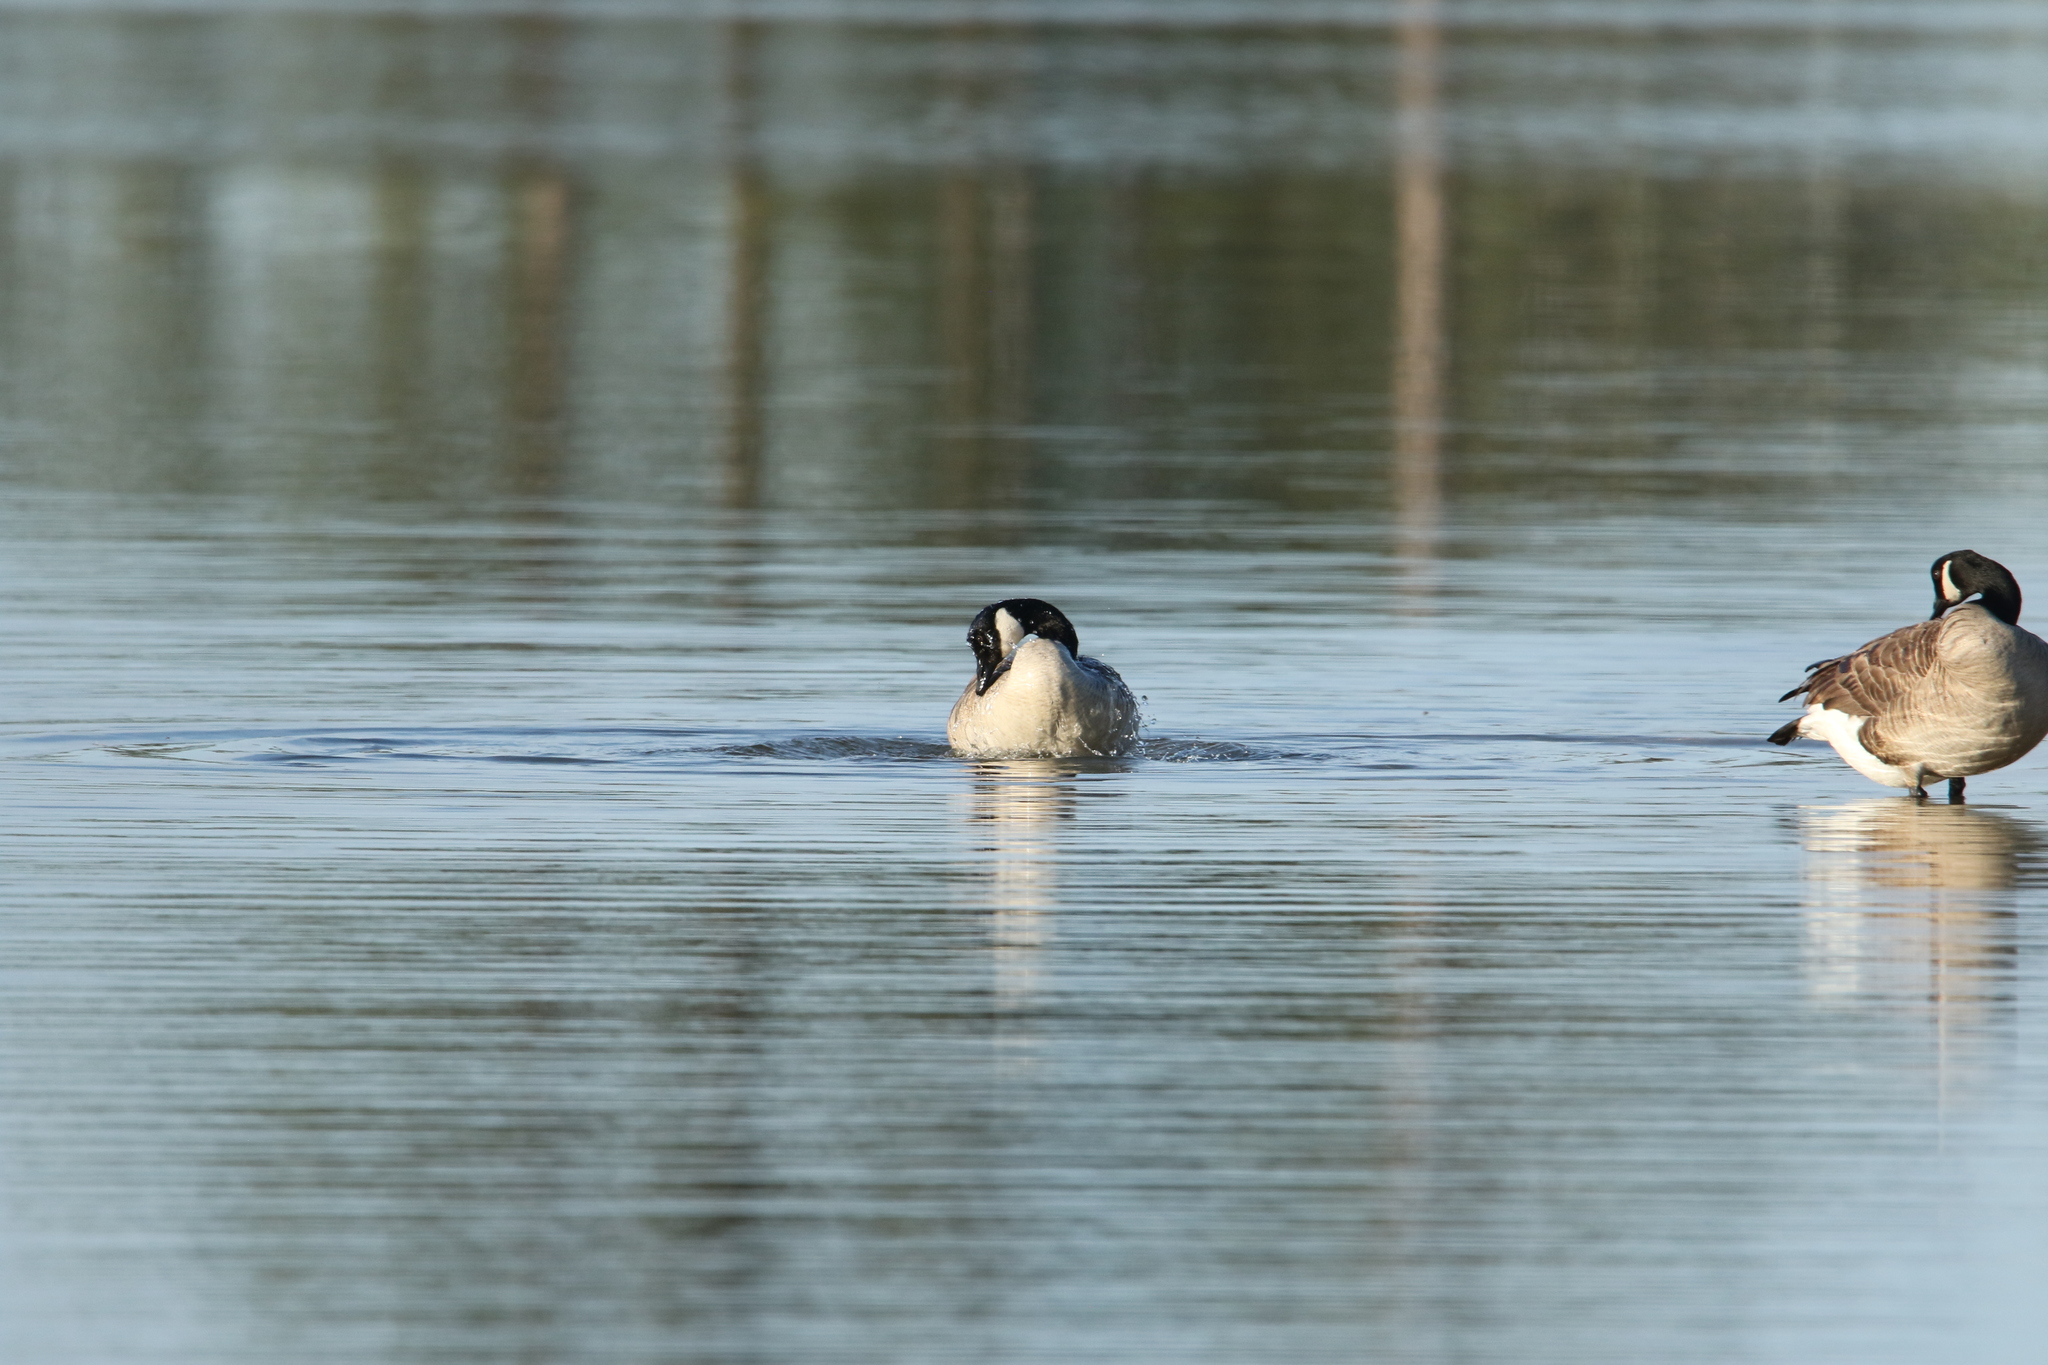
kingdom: Animalia
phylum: Chordata
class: Aves
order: Anseriformes
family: Anatidae
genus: Branta
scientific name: Branta canadensis
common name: Canada goose
